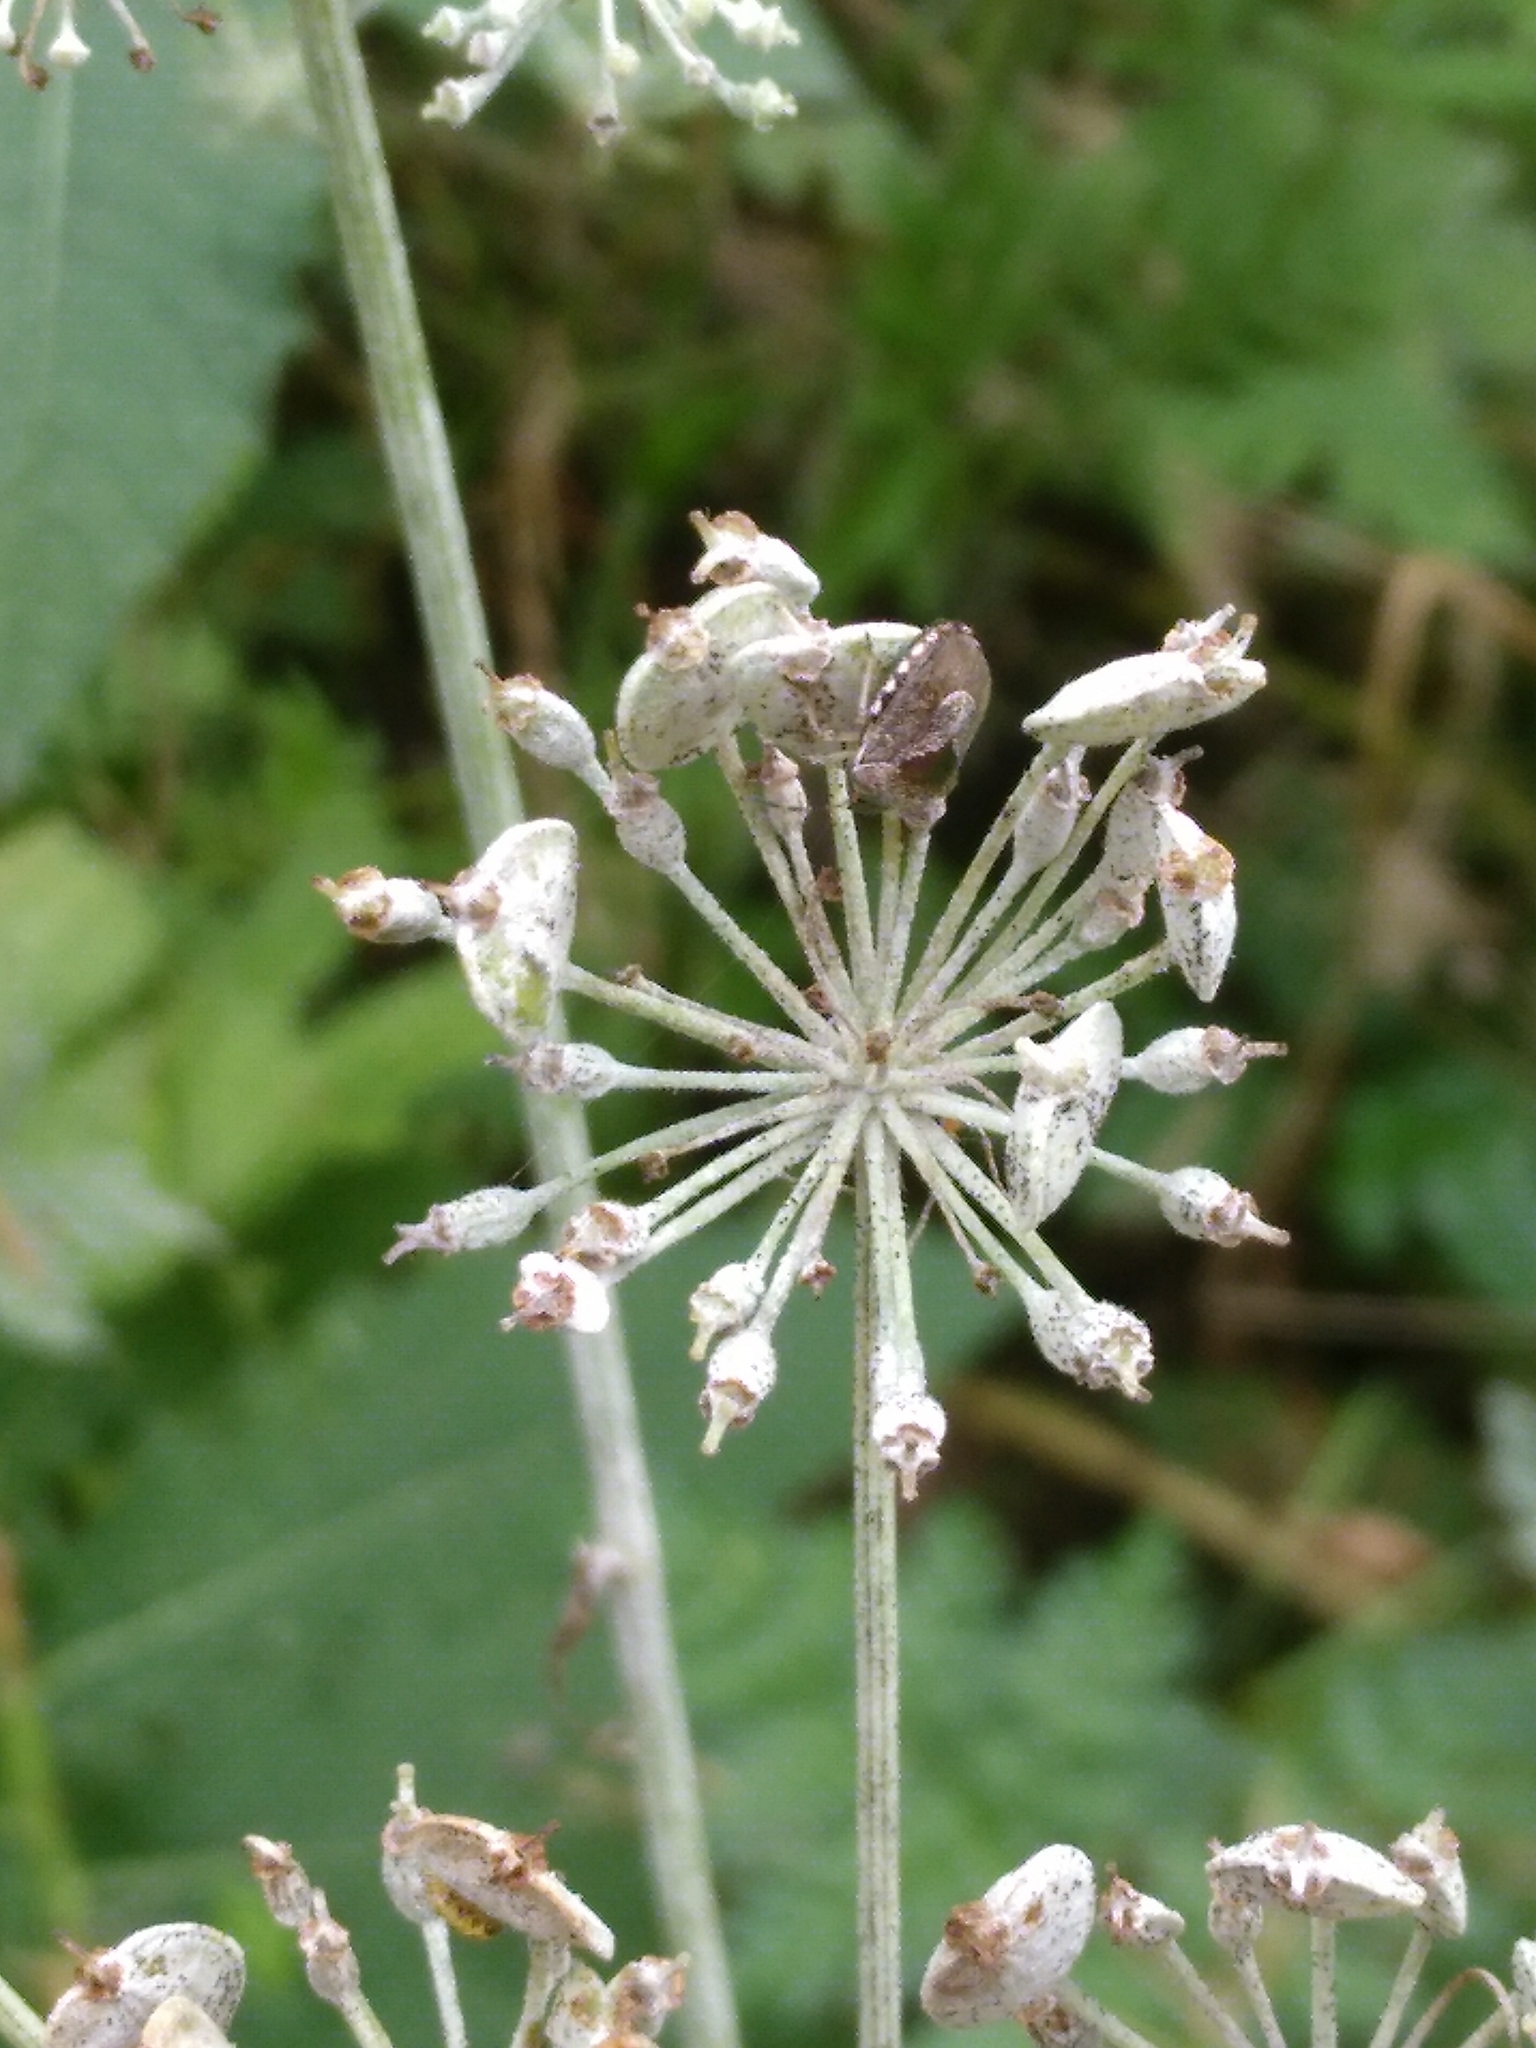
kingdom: Animalia
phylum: Arthropoda
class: Insecta
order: Hemiptera
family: Pentatomidae
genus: Eysarcoris
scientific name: Eysarcoris venustissimus
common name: Woundwort shieldbug
